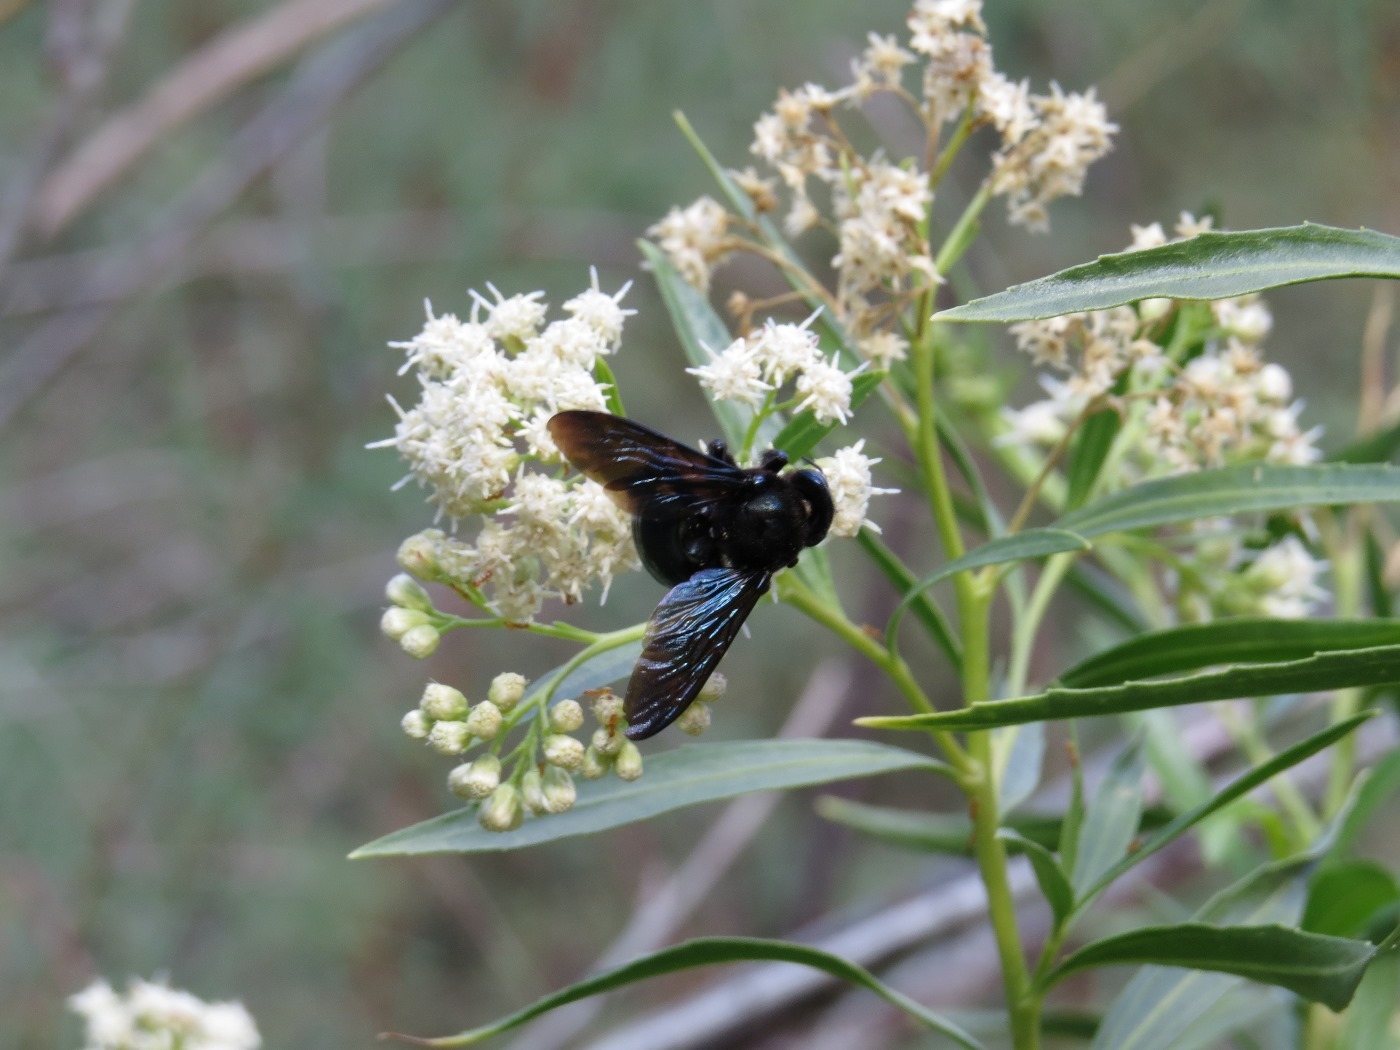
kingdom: Animalia
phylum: Arthropoda
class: Insecta
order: Hymenoptera
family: Apidae
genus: Xylocopa
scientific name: Xylocopa californica
